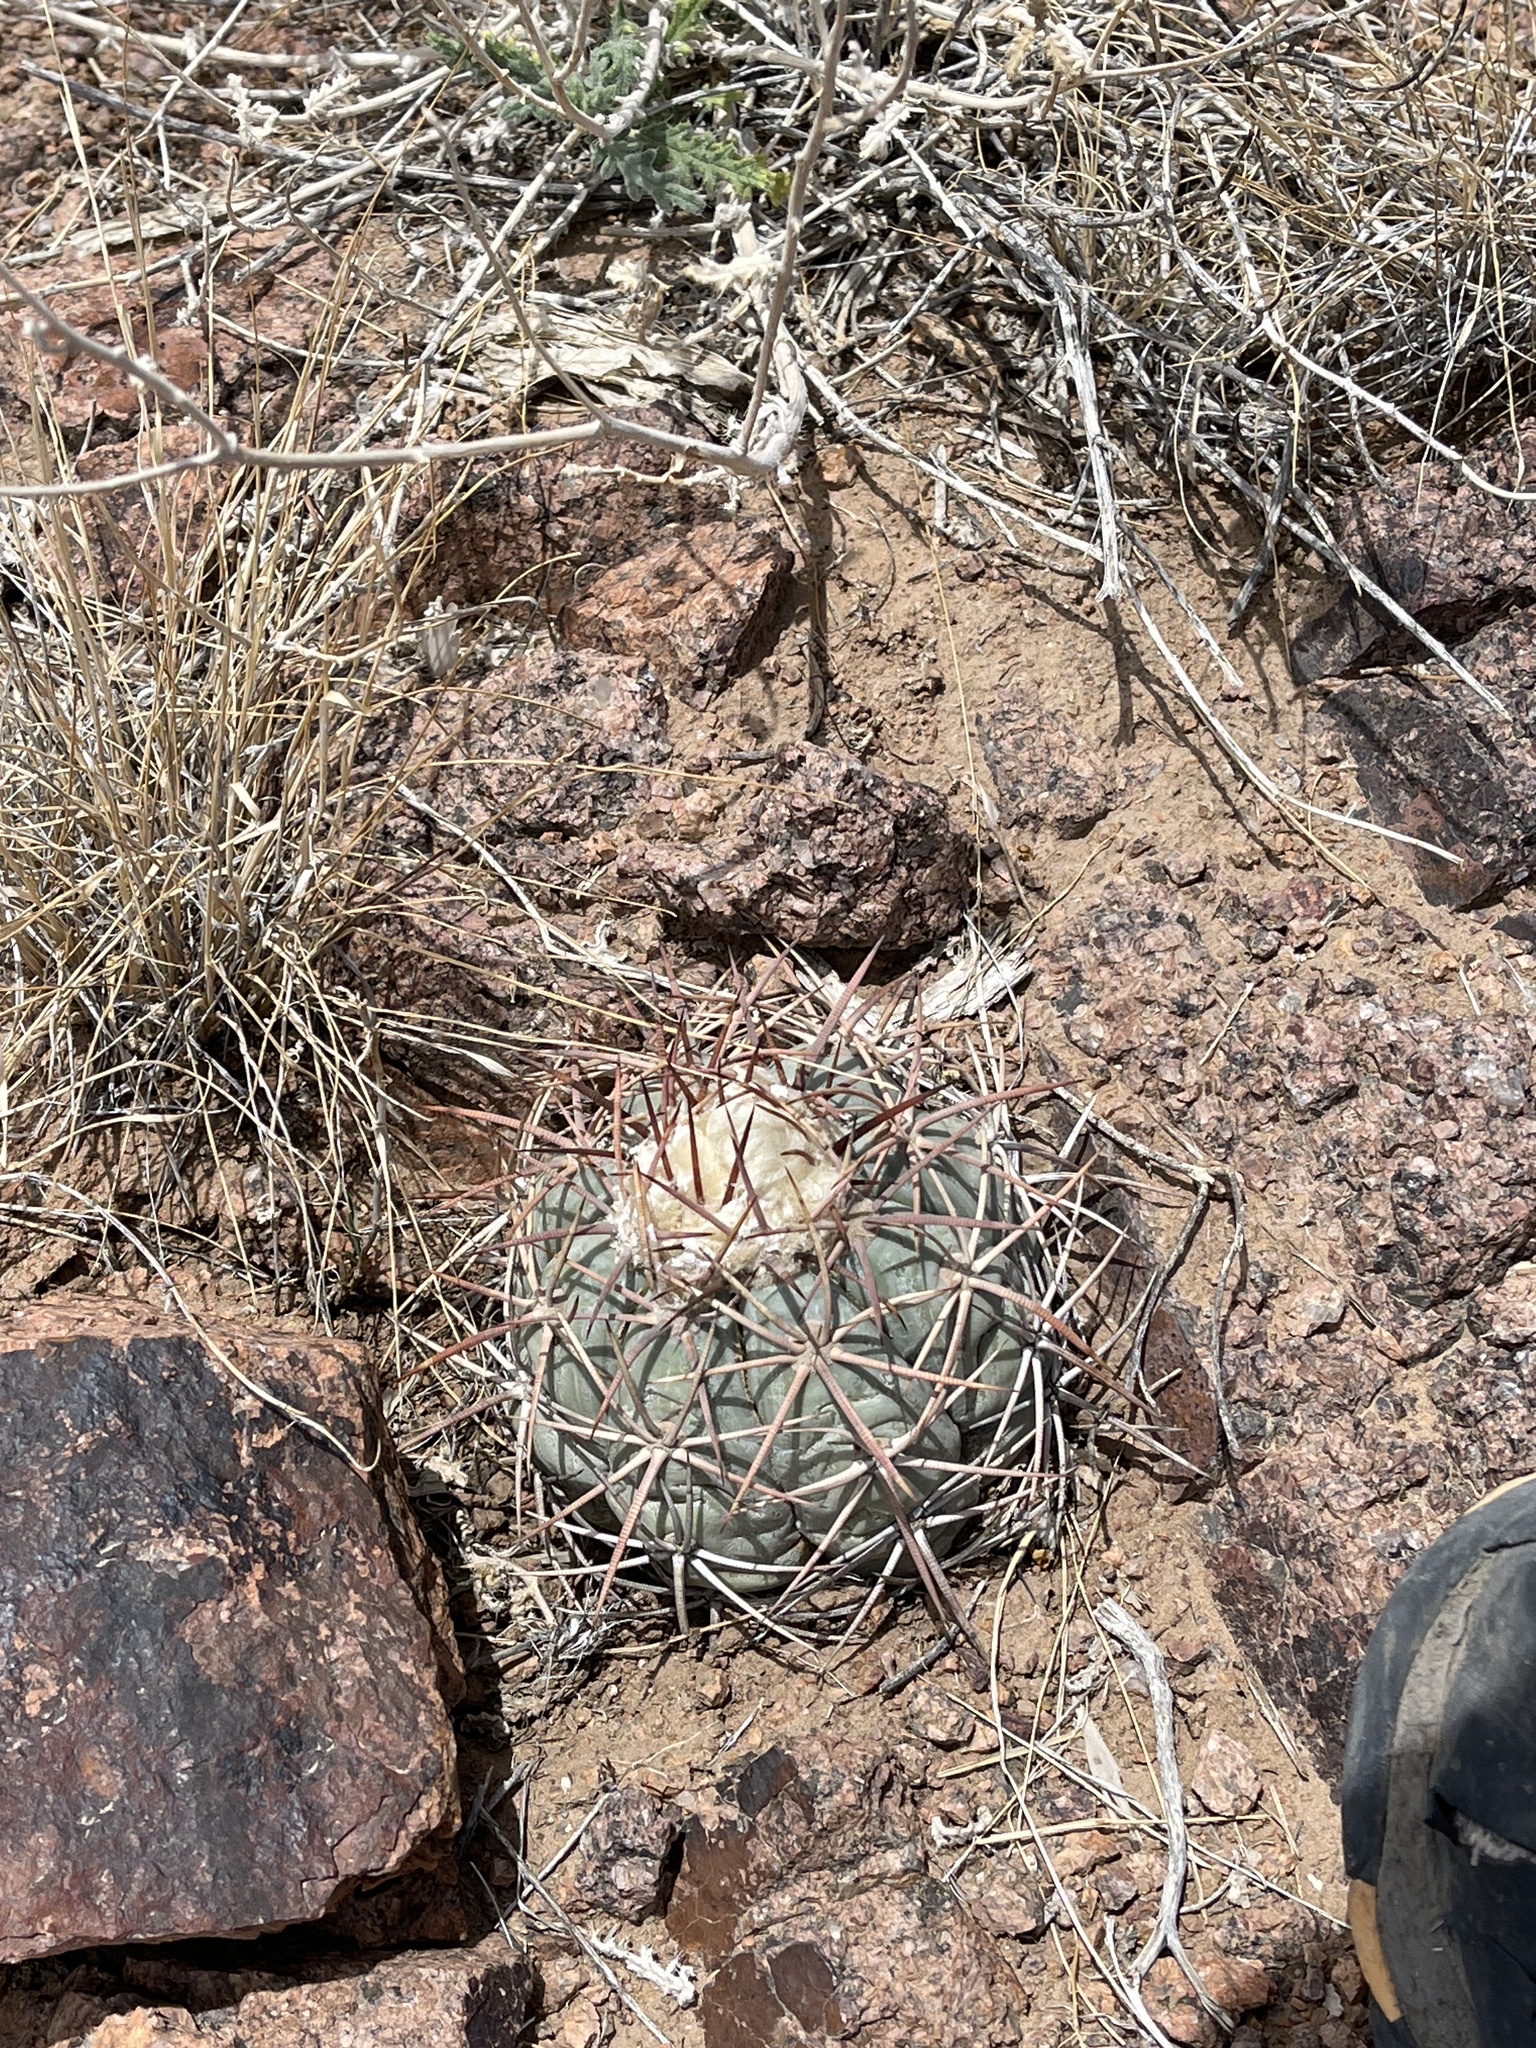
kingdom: Plantae
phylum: Tracheophyta
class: Magnoliopsida
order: Caryophyllales
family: Cactaceae
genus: Echinocactus
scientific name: Echinocactus horizonthalonius
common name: Devilshead
